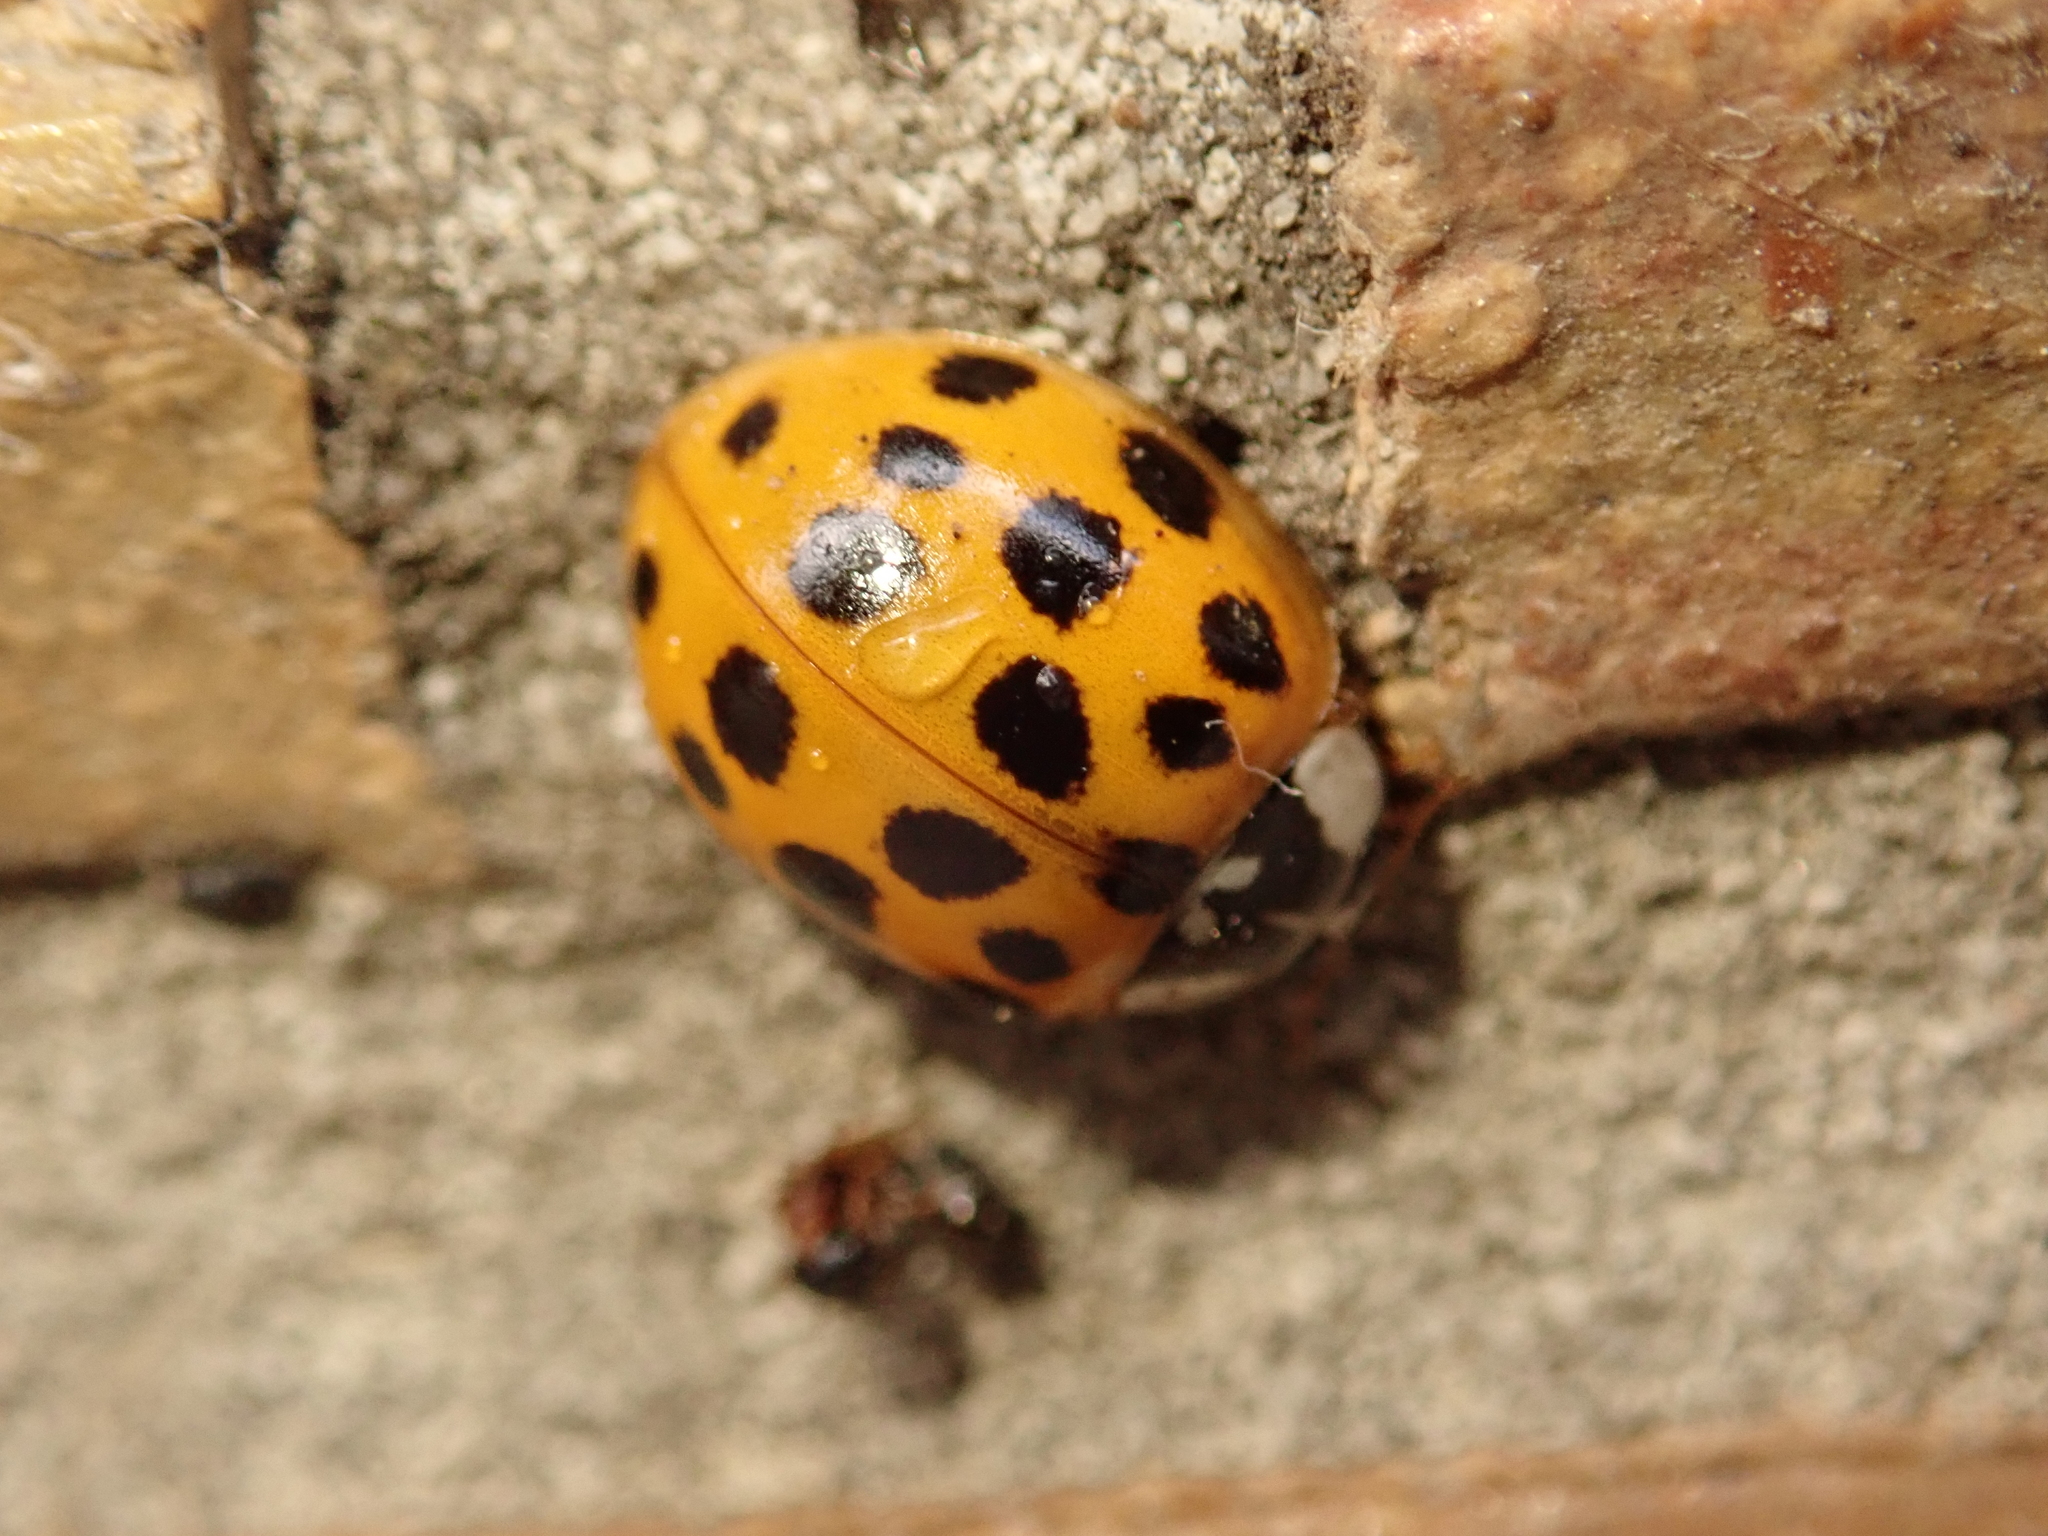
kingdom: Animalia
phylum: Arthropoda
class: Insecta
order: Coleoptera
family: Coccinellidae
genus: Harmonia
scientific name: Harmonia axyridis
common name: Harlequin ladybird
